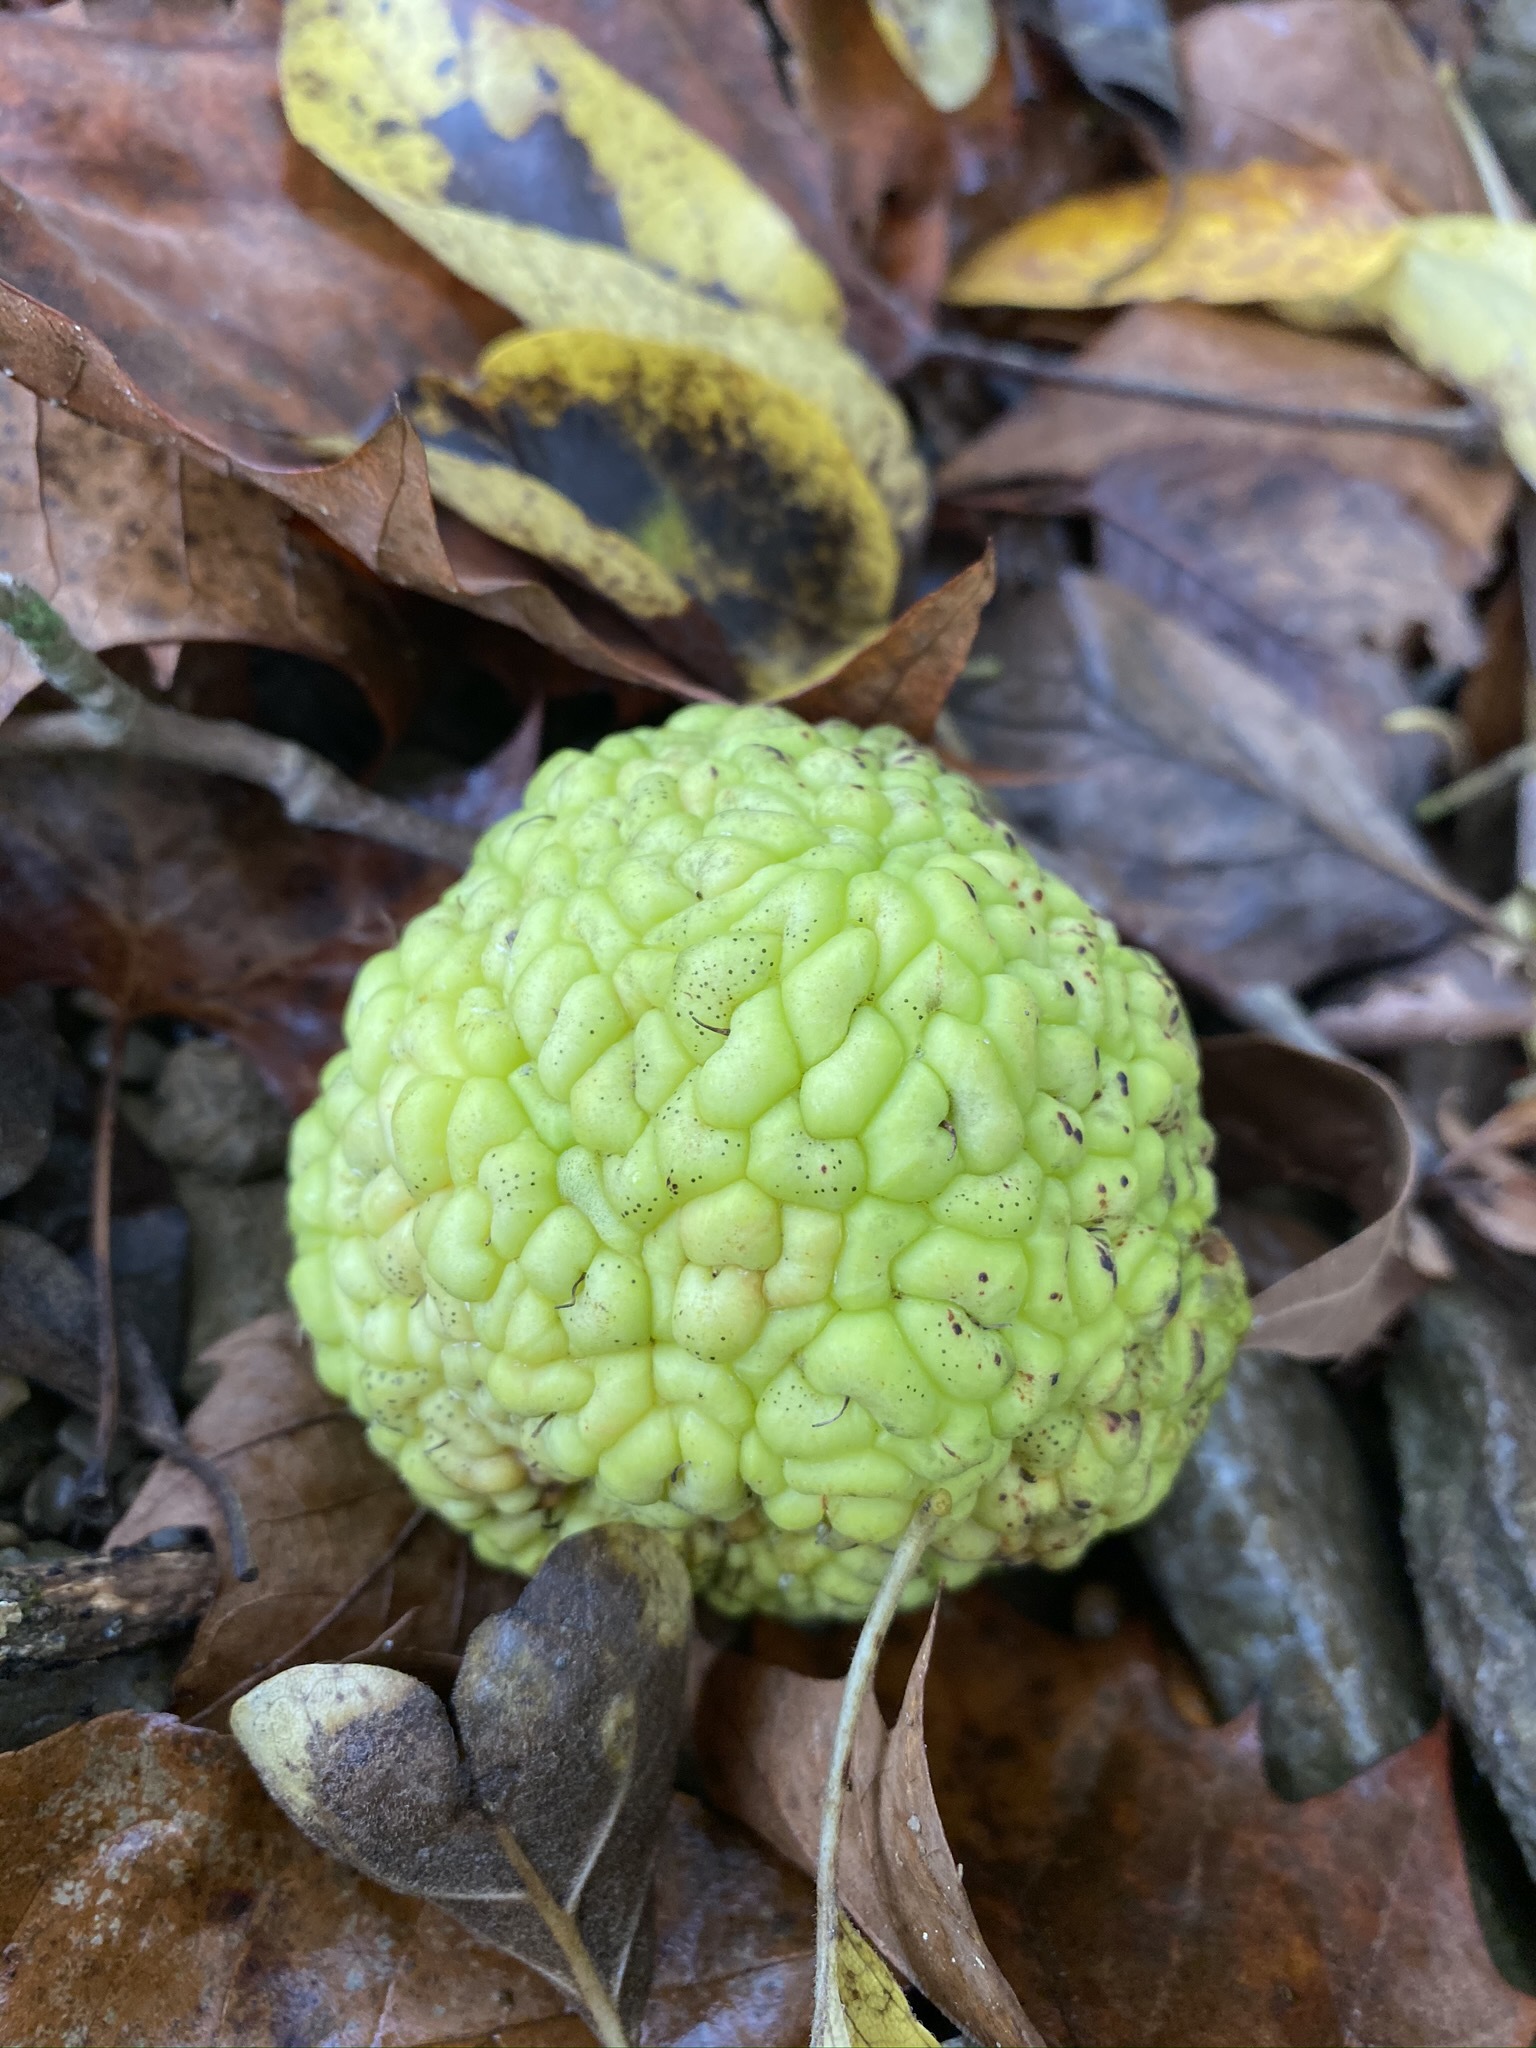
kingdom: Plantae
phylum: Tracheophyta
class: Magnoliopsida
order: Rosales
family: Moraceae
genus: Maclura
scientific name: Maclura pomifera
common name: Osage-orange
